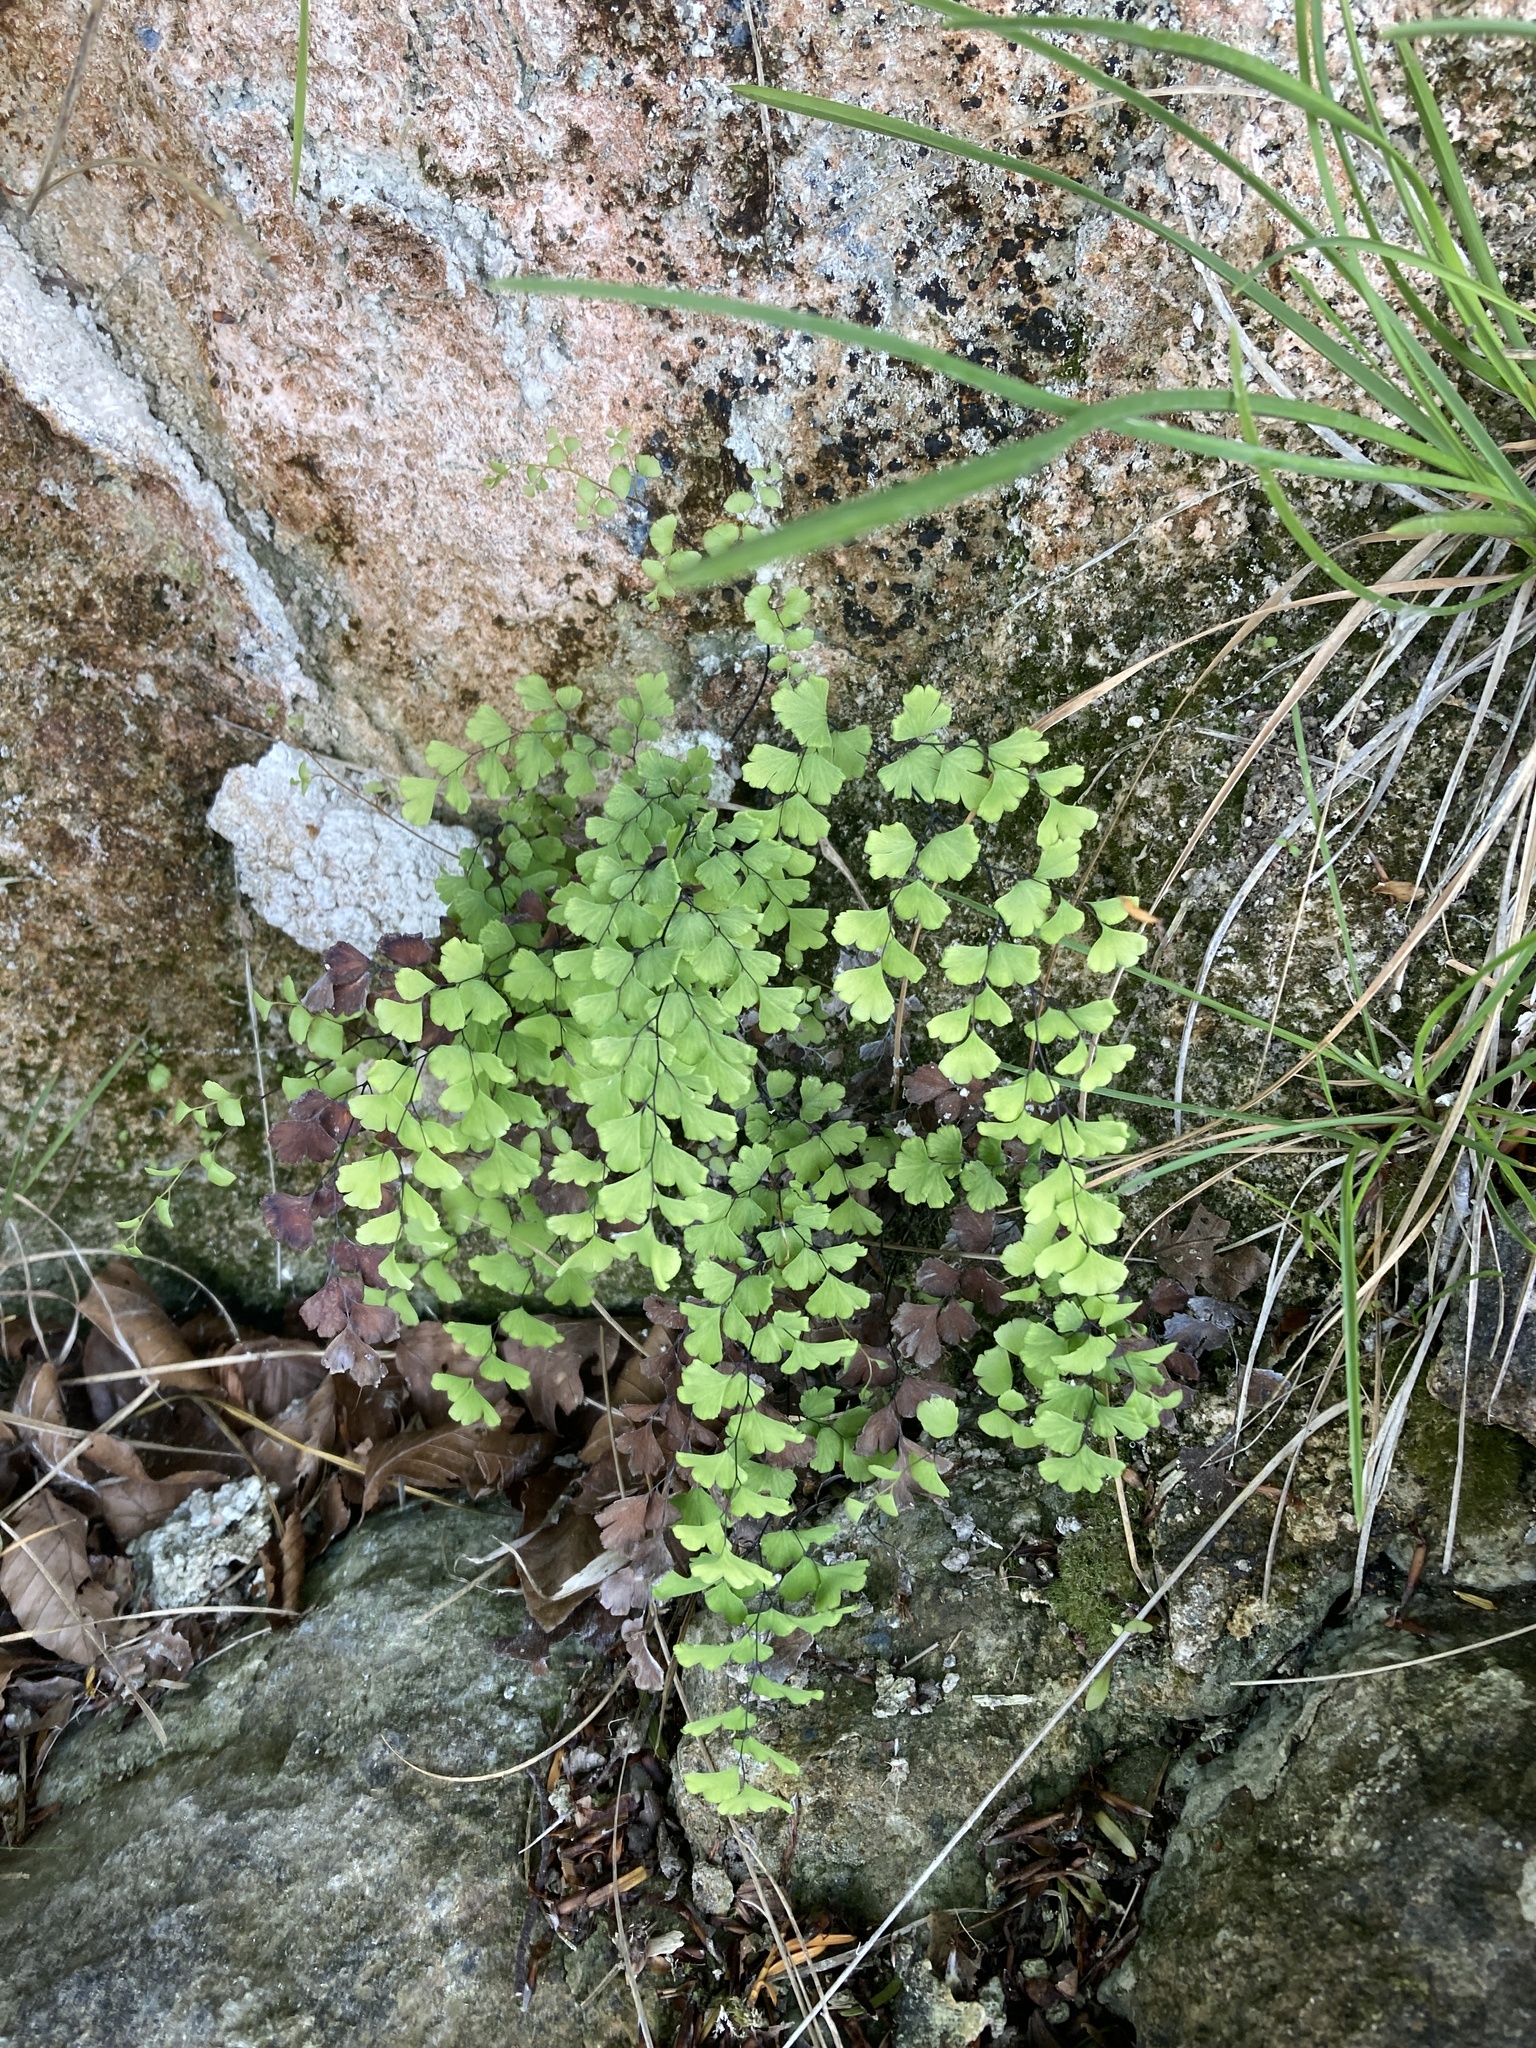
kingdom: Plantae
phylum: Tracheophyta
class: Polypodiopsida
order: Polypodiales
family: Pteridaceae
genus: Adiantum
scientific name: Adiantum capillus-veneris
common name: Maidenhair fern
